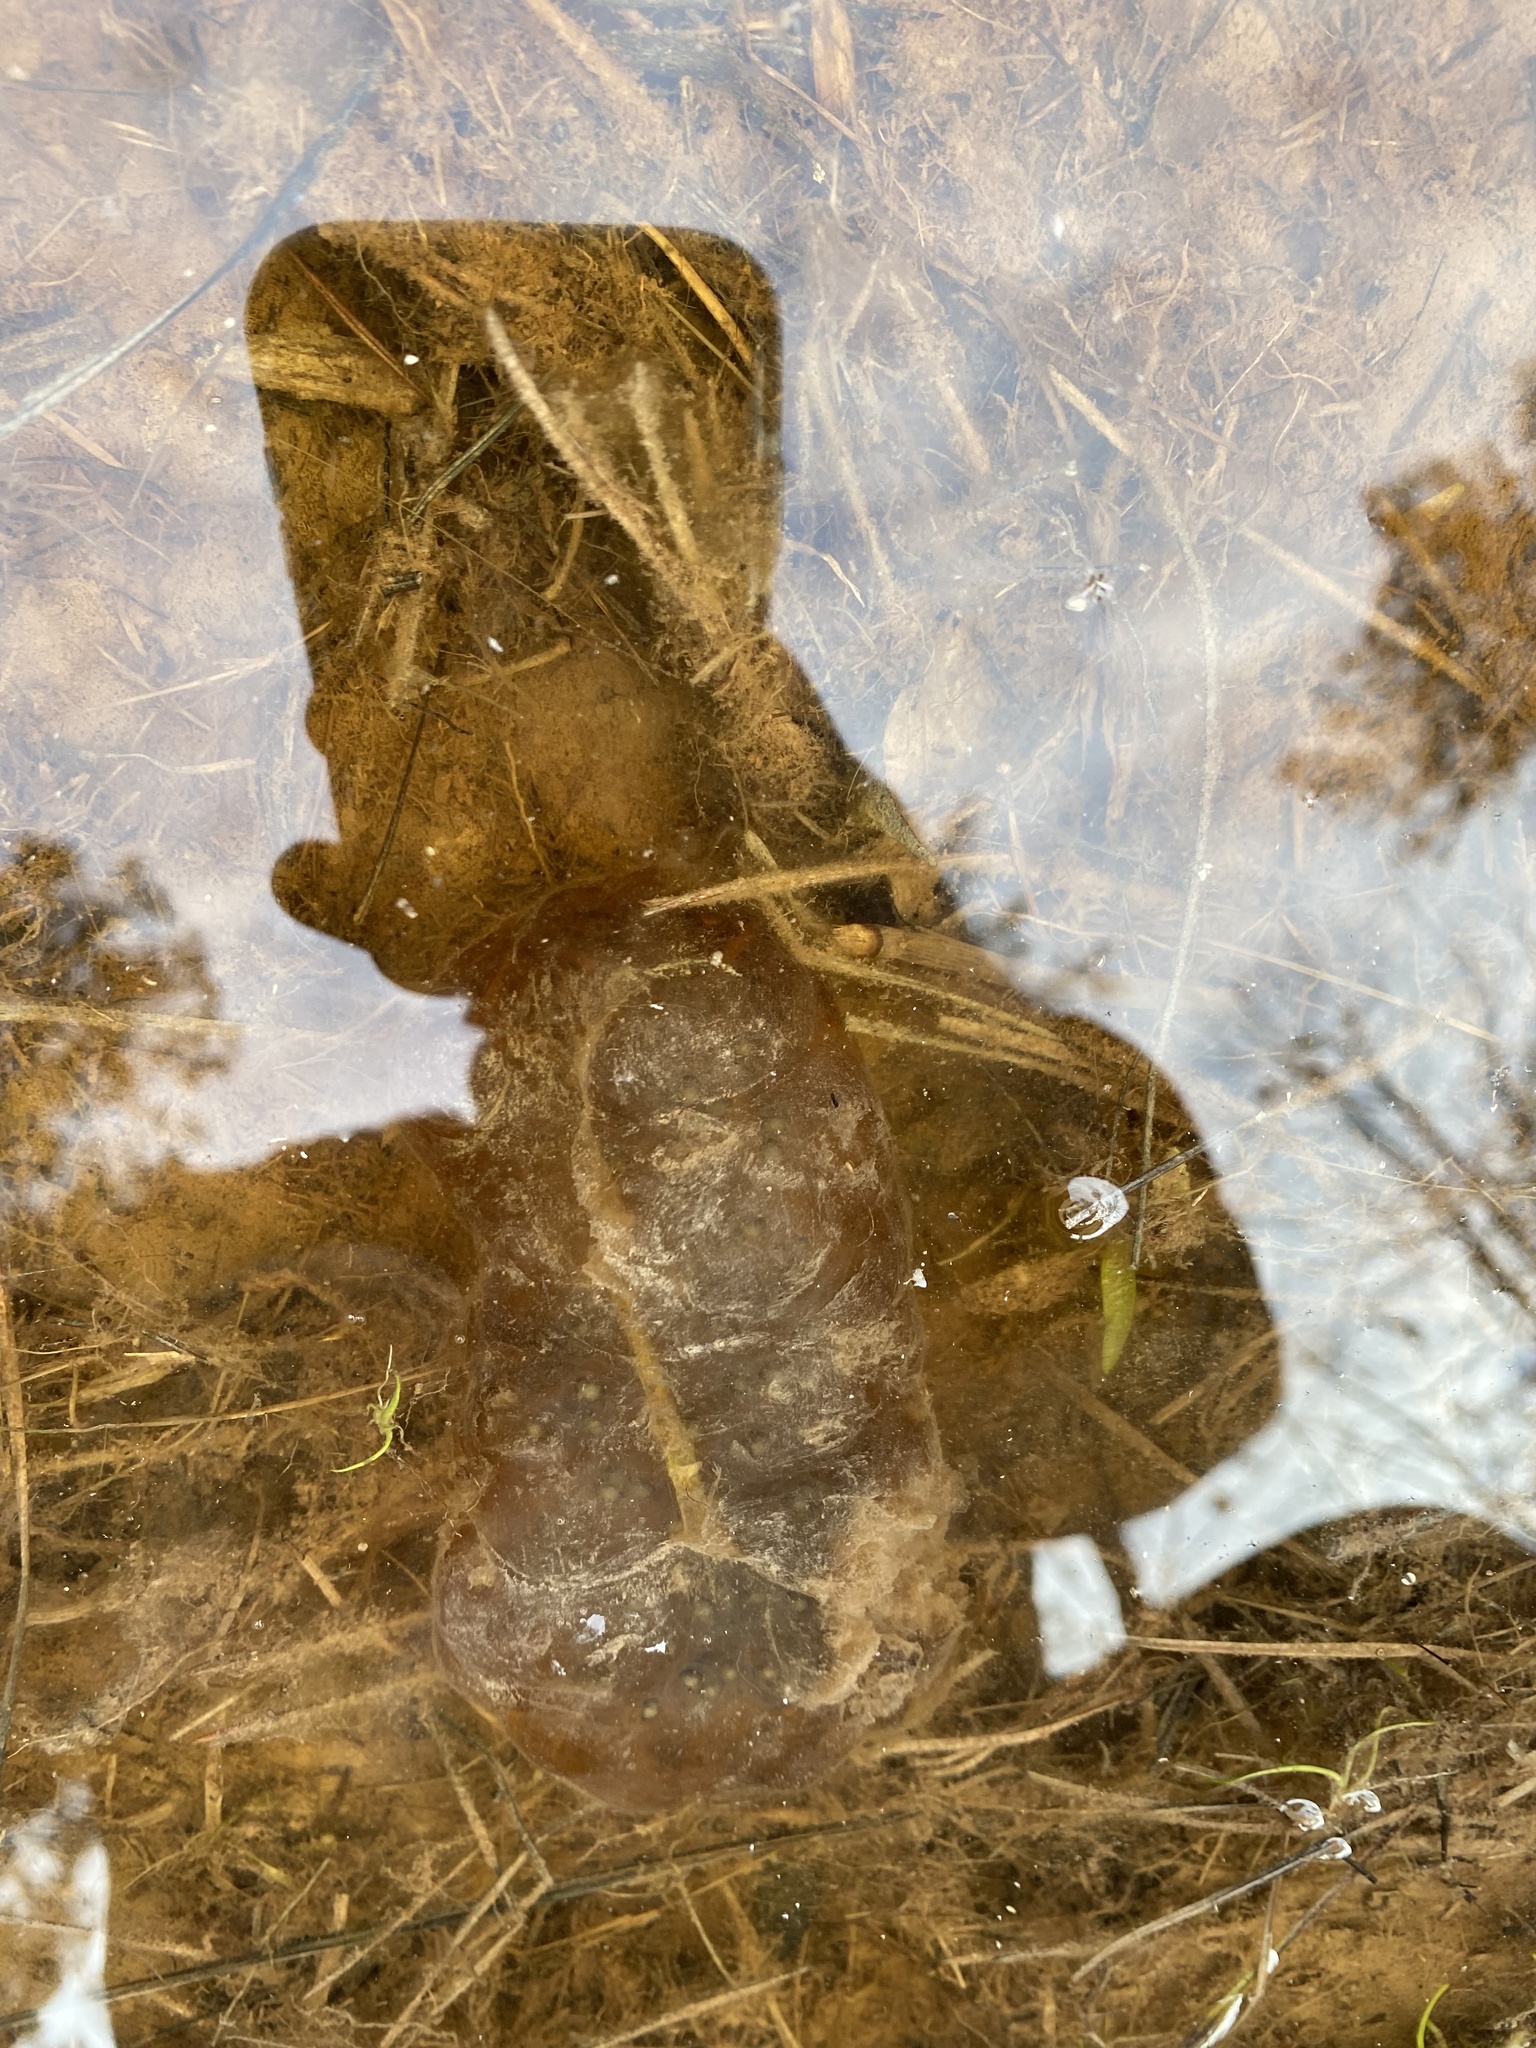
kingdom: Animalia
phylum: Chordata
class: Amphibia
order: Caudata
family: Ambystomatidae
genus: Ambystoma
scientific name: Ambystoma maculatum
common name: Spotted salamander
